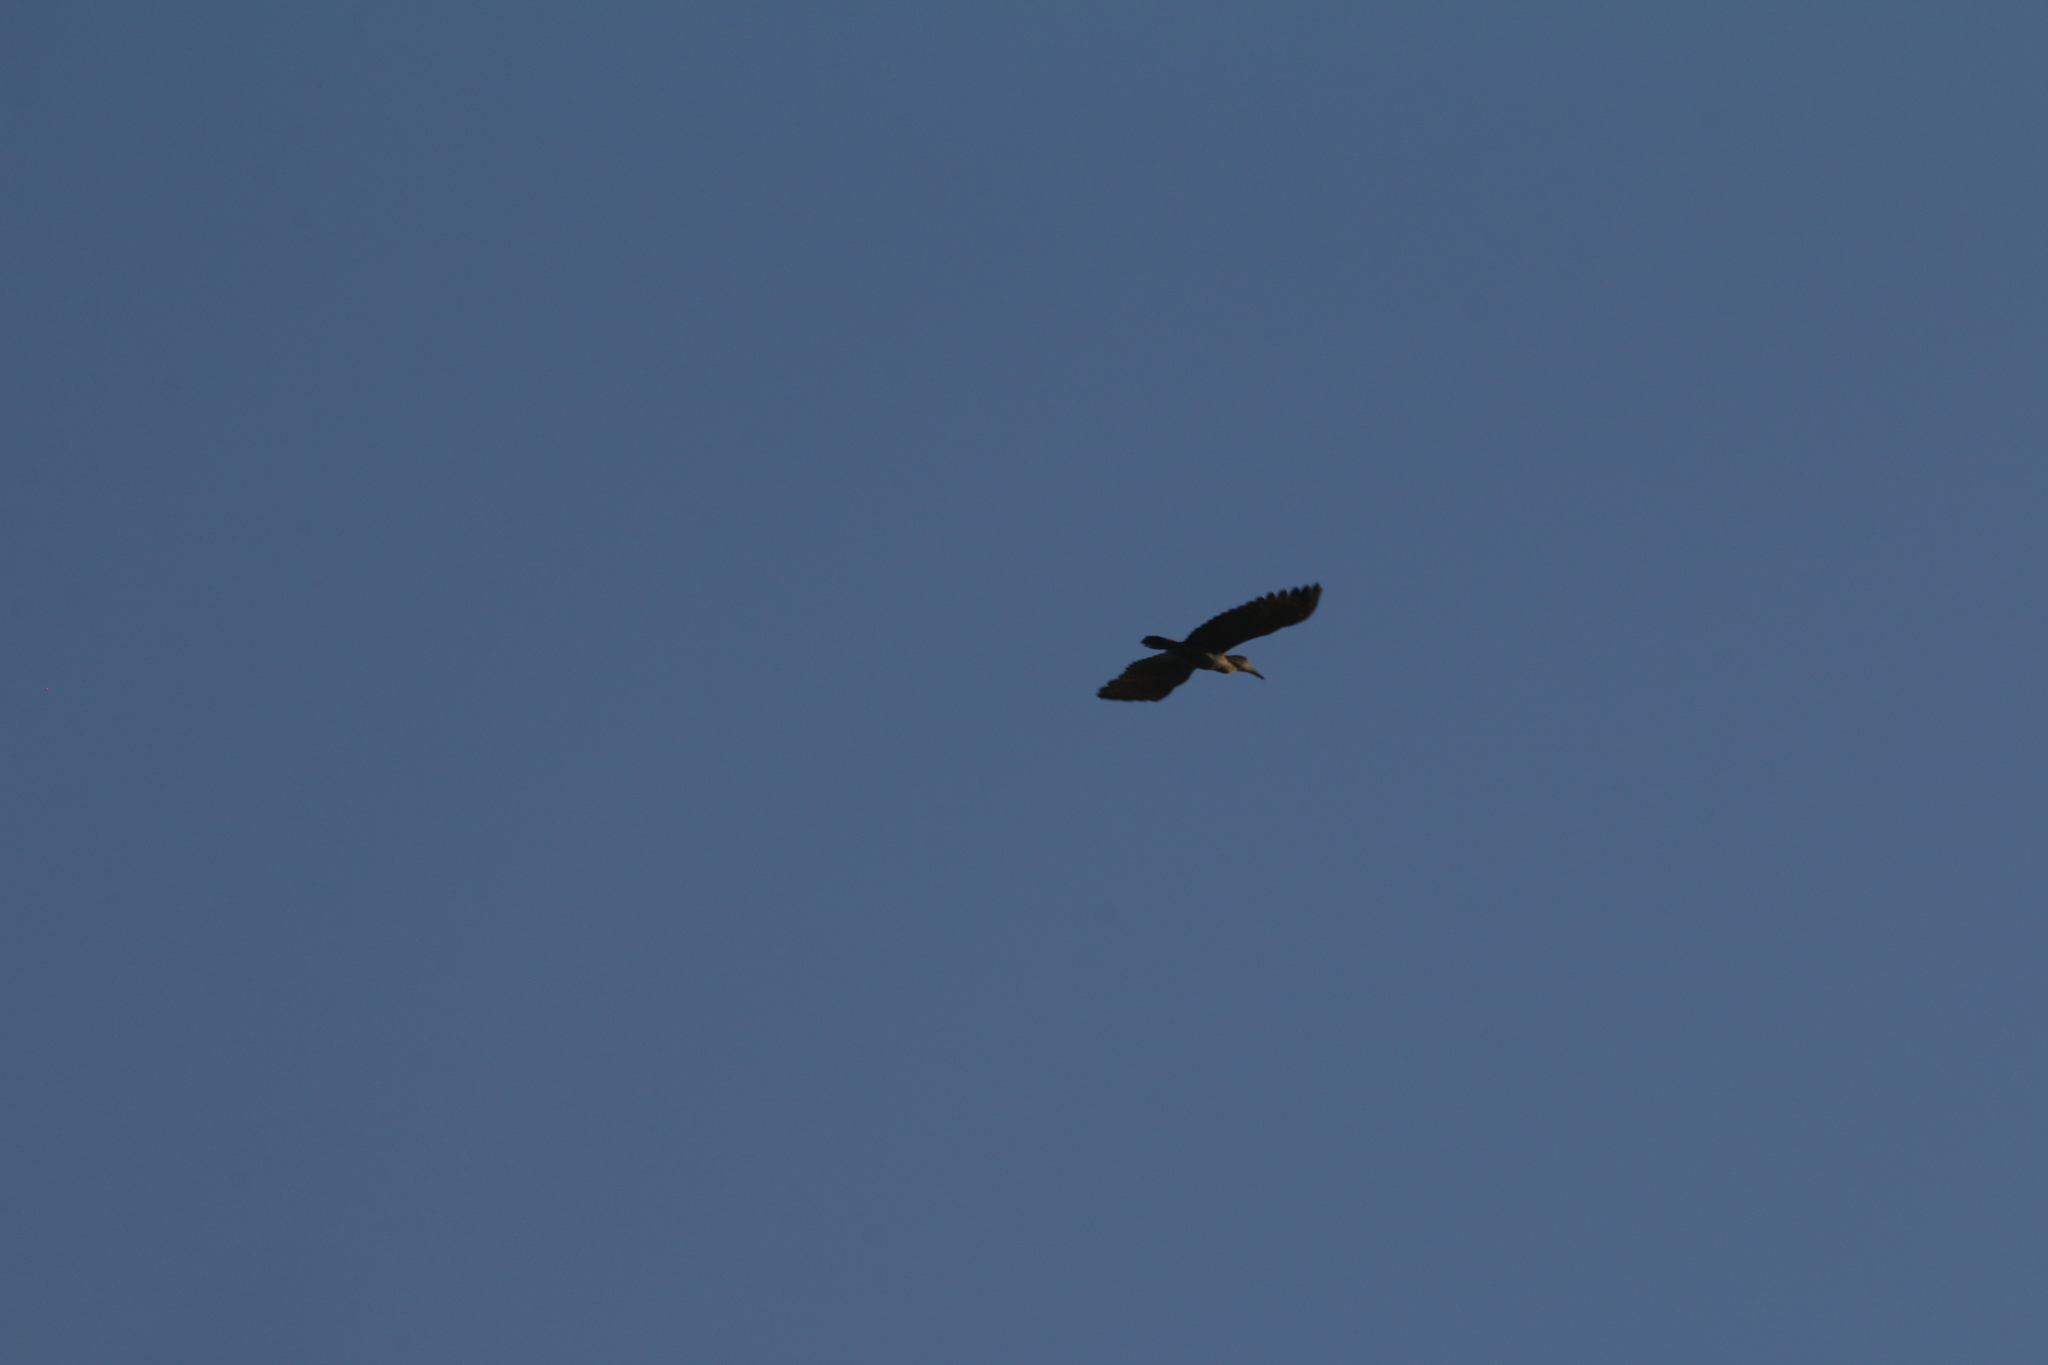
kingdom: Animalia
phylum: Chordata
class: Aves
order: Pelecaniformes
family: Scopidae
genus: Scopus
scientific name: Scopus umbretta
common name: Hamerkop
